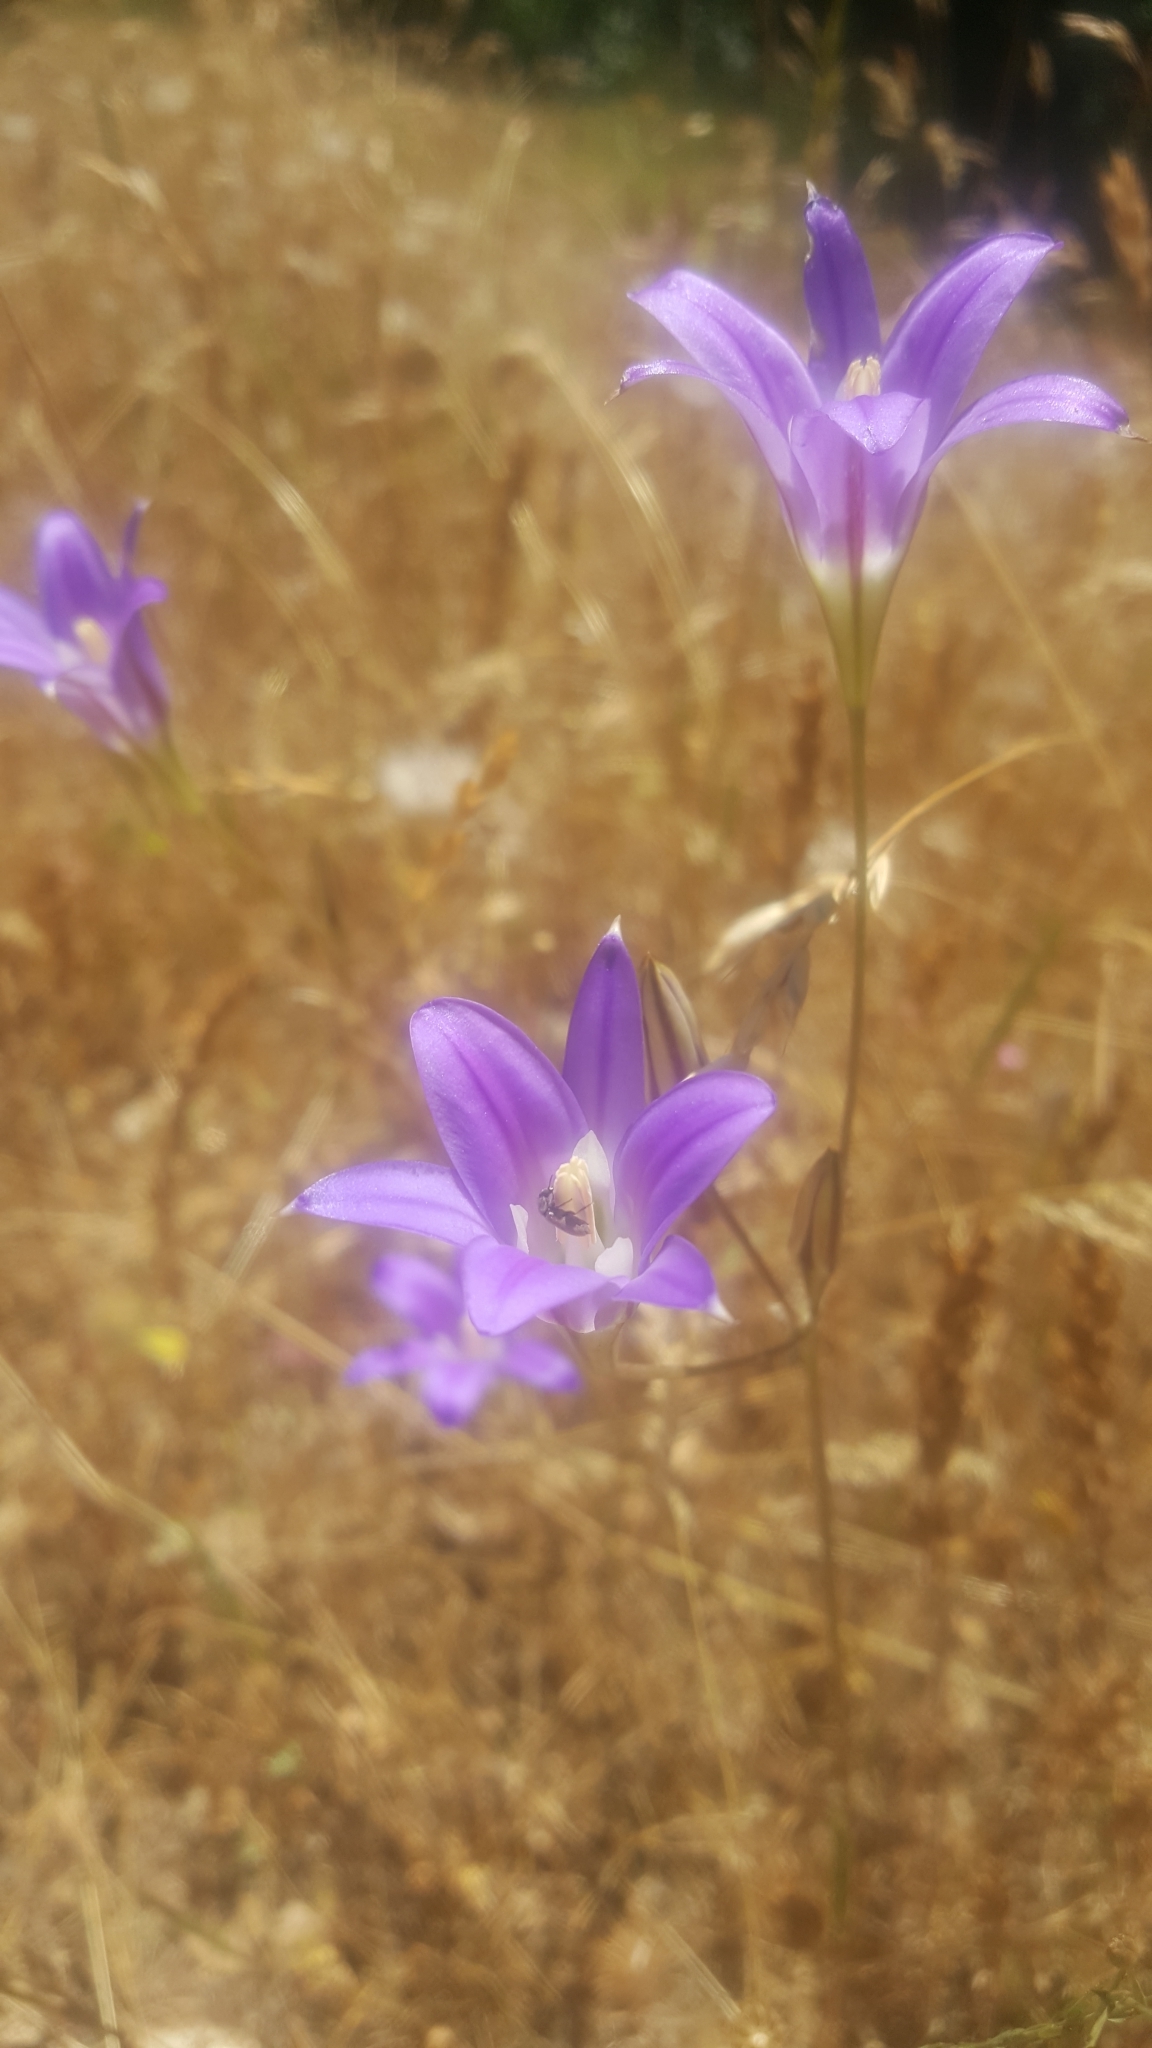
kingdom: Plantae
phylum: Tracheophyta
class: Liliopsida
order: Asparagales
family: Asparagaceae
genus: Brodiaea
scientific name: Brodiaea elegans
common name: Elegant cluster-lily
